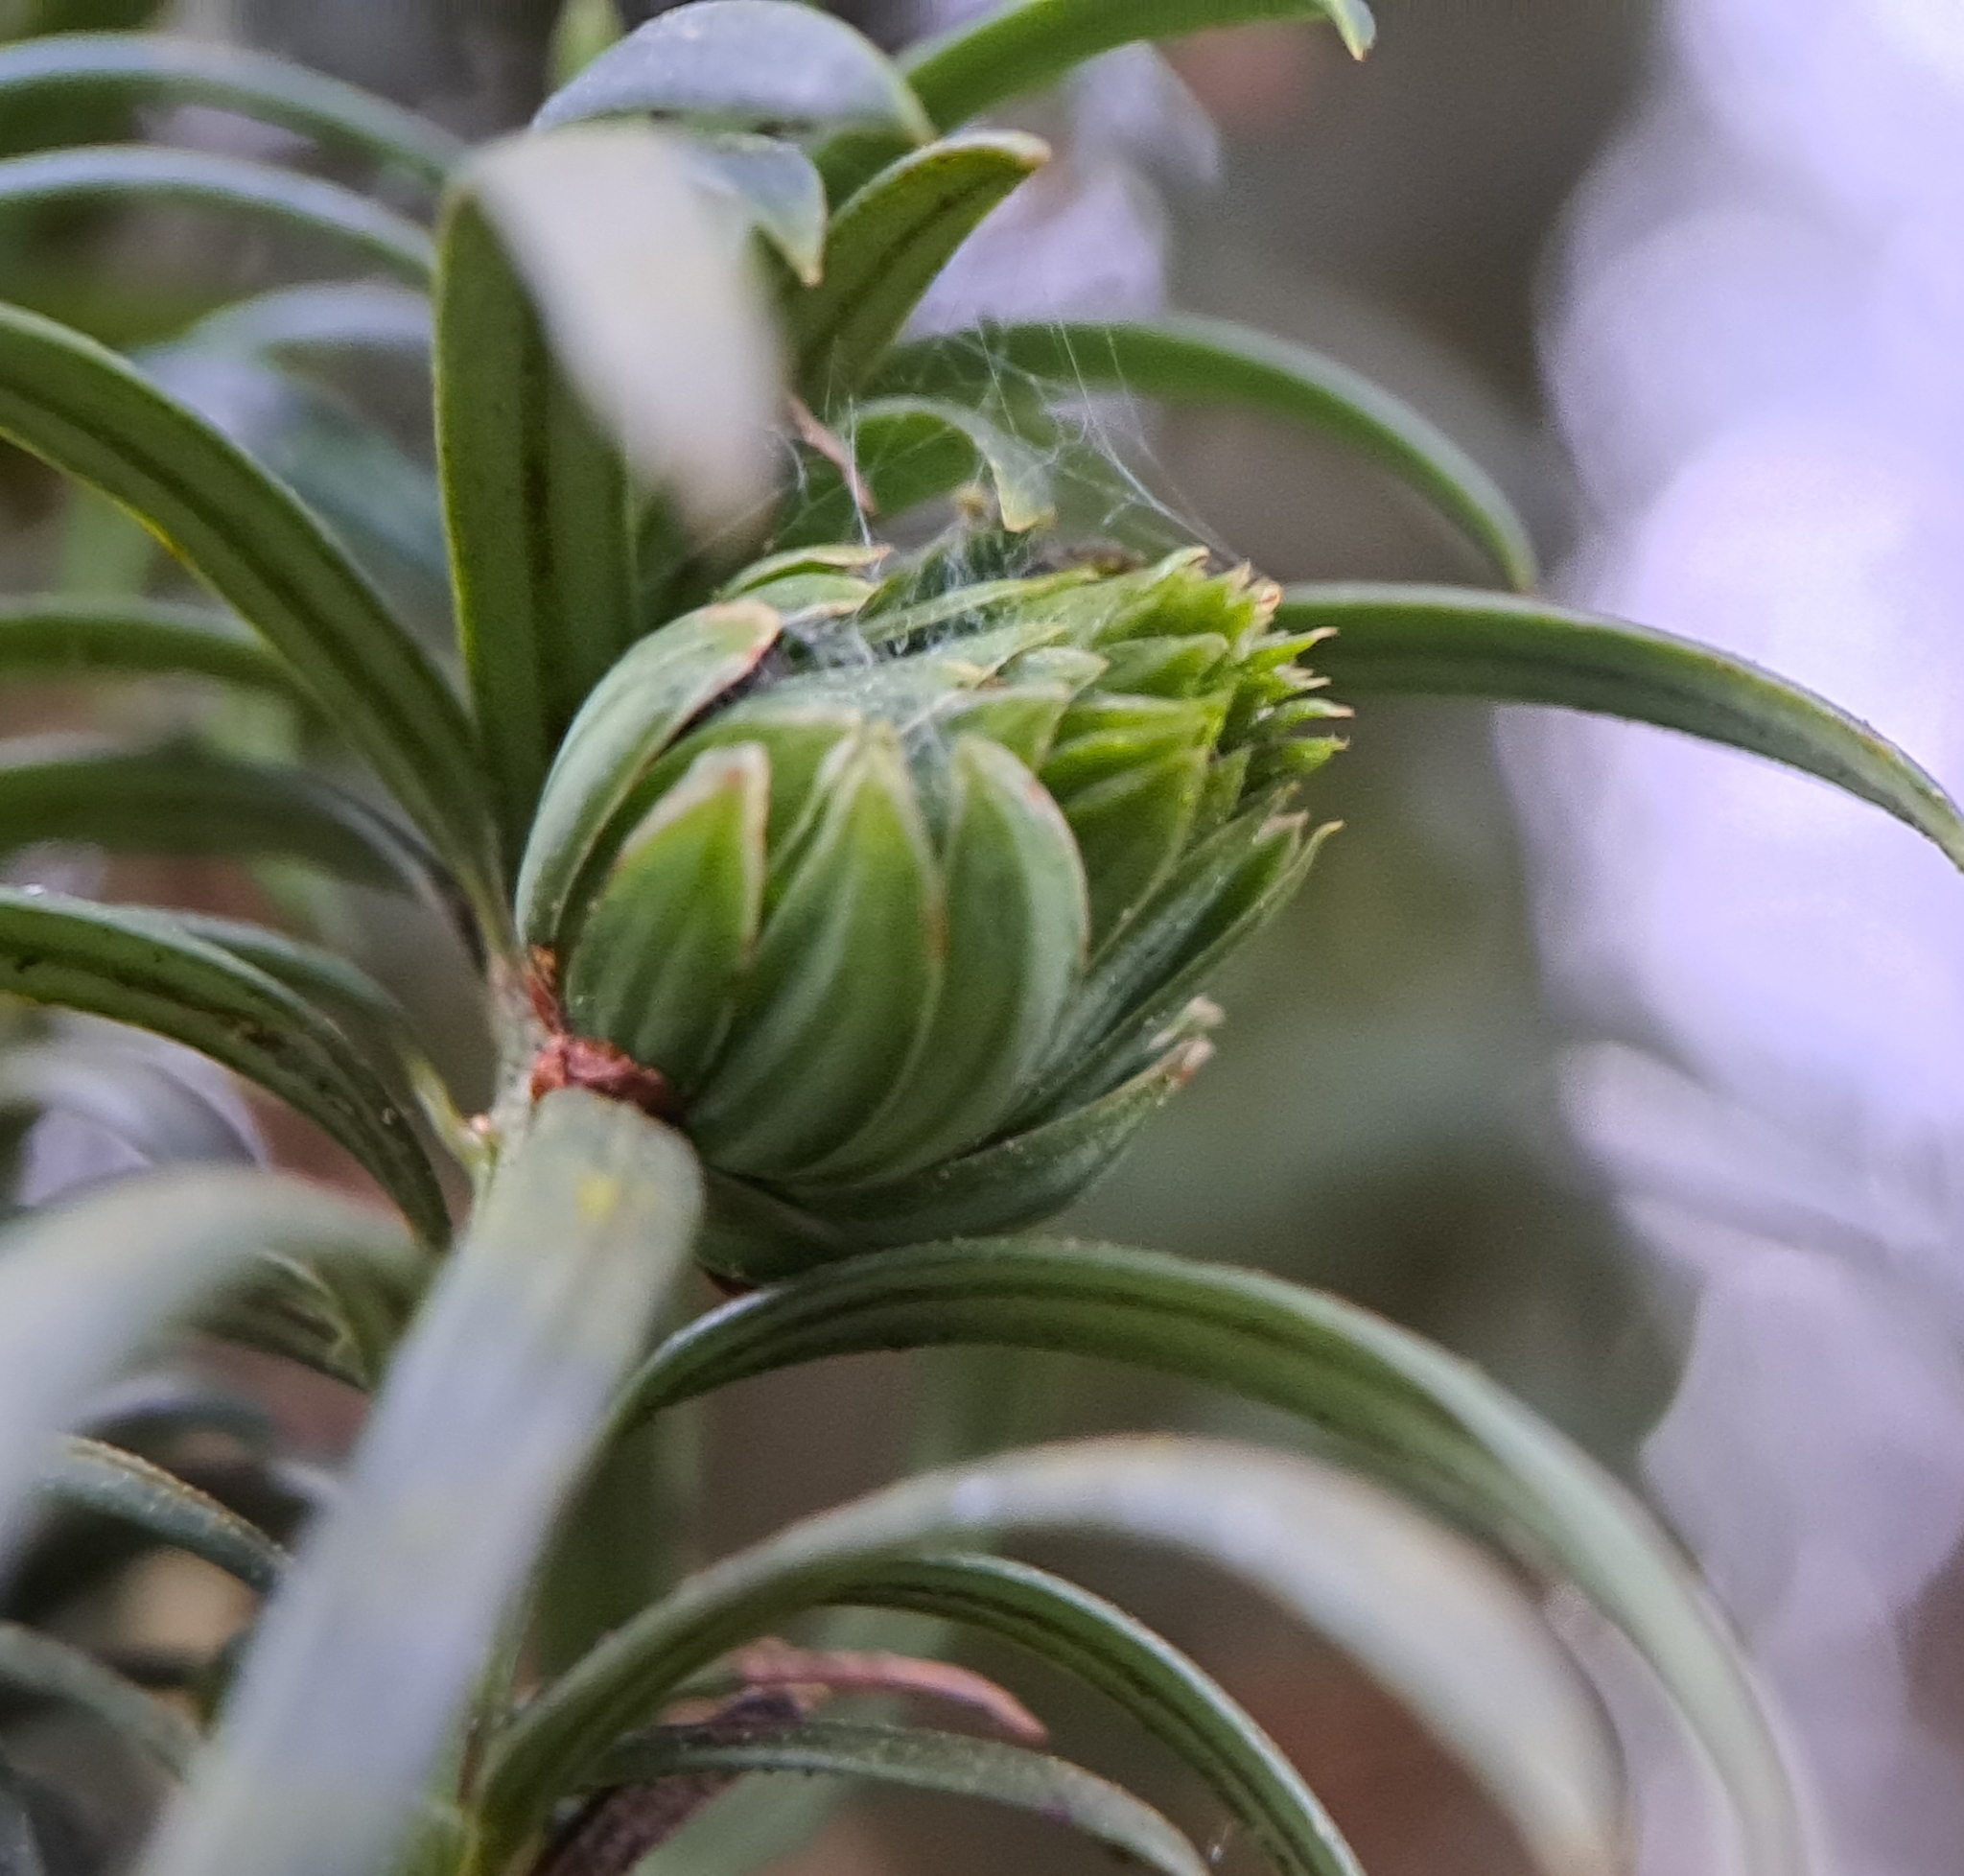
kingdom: Animalia
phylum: Arthropoda
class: Insecta
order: Diptera
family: Cecidomyiidae
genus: Taxomyia
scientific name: Taxomyia taxi
